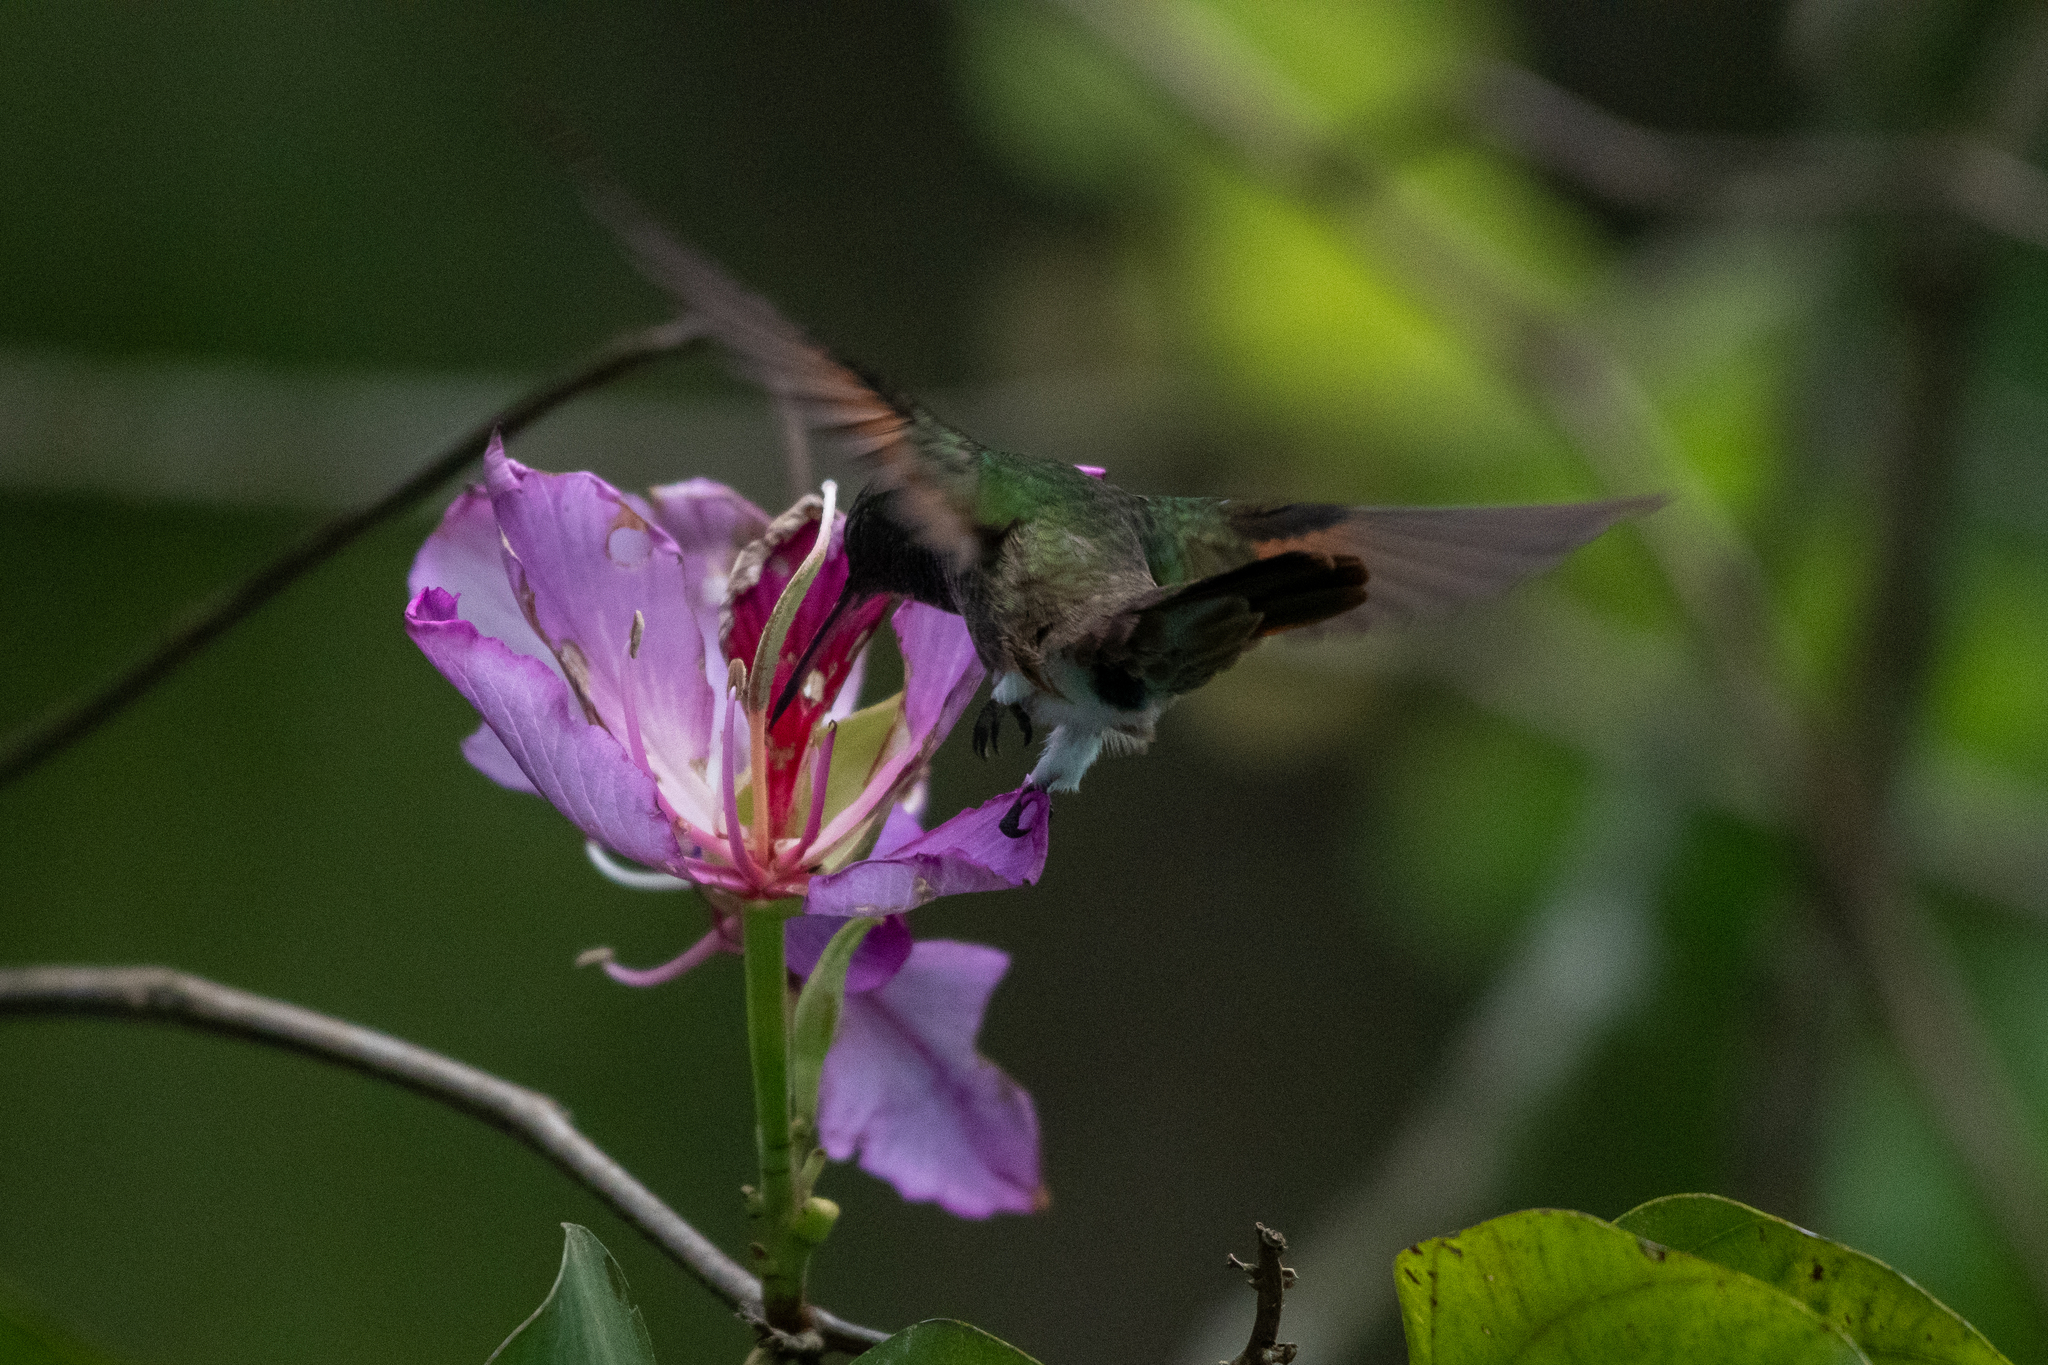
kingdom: Animalia
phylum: Chordata
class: Aves
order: Apodiformes
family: Trochilidae
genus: Saucerottia
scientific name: Saucerottia beryllina
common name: Berylline hummingbird
